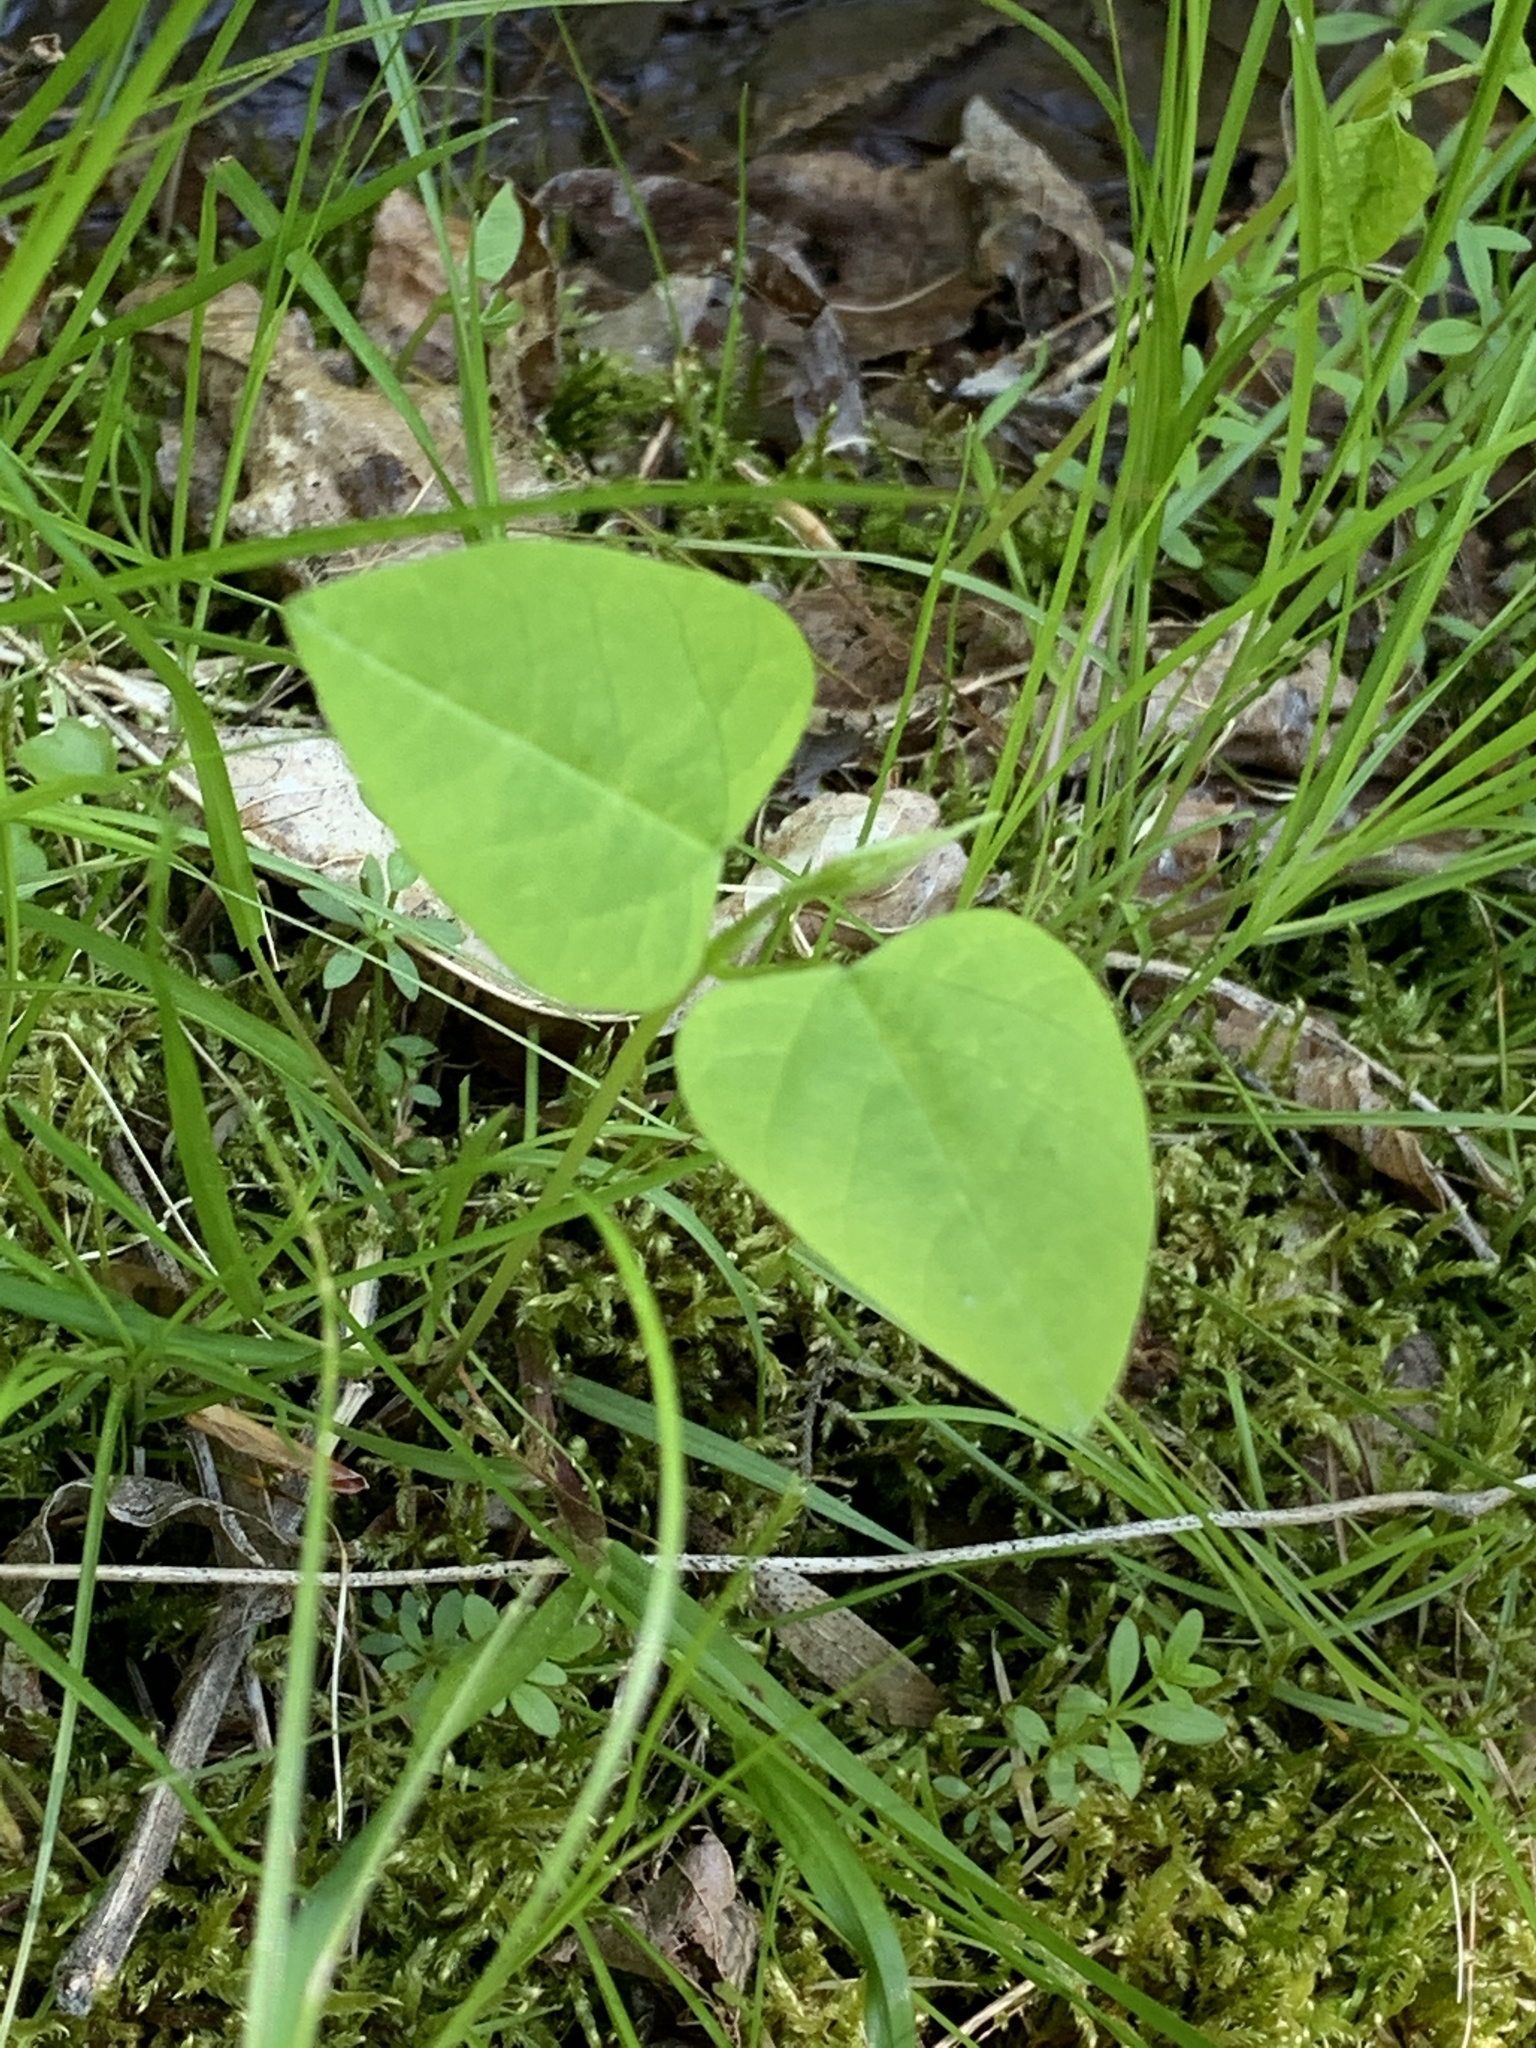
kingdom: Plantae
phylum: Tracheophyta
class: Magnoliopsida
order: Fabales
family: Fabaceae
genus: Amphicarpaea
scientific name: Amphicarpaea bracteata
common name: American hog peanut
